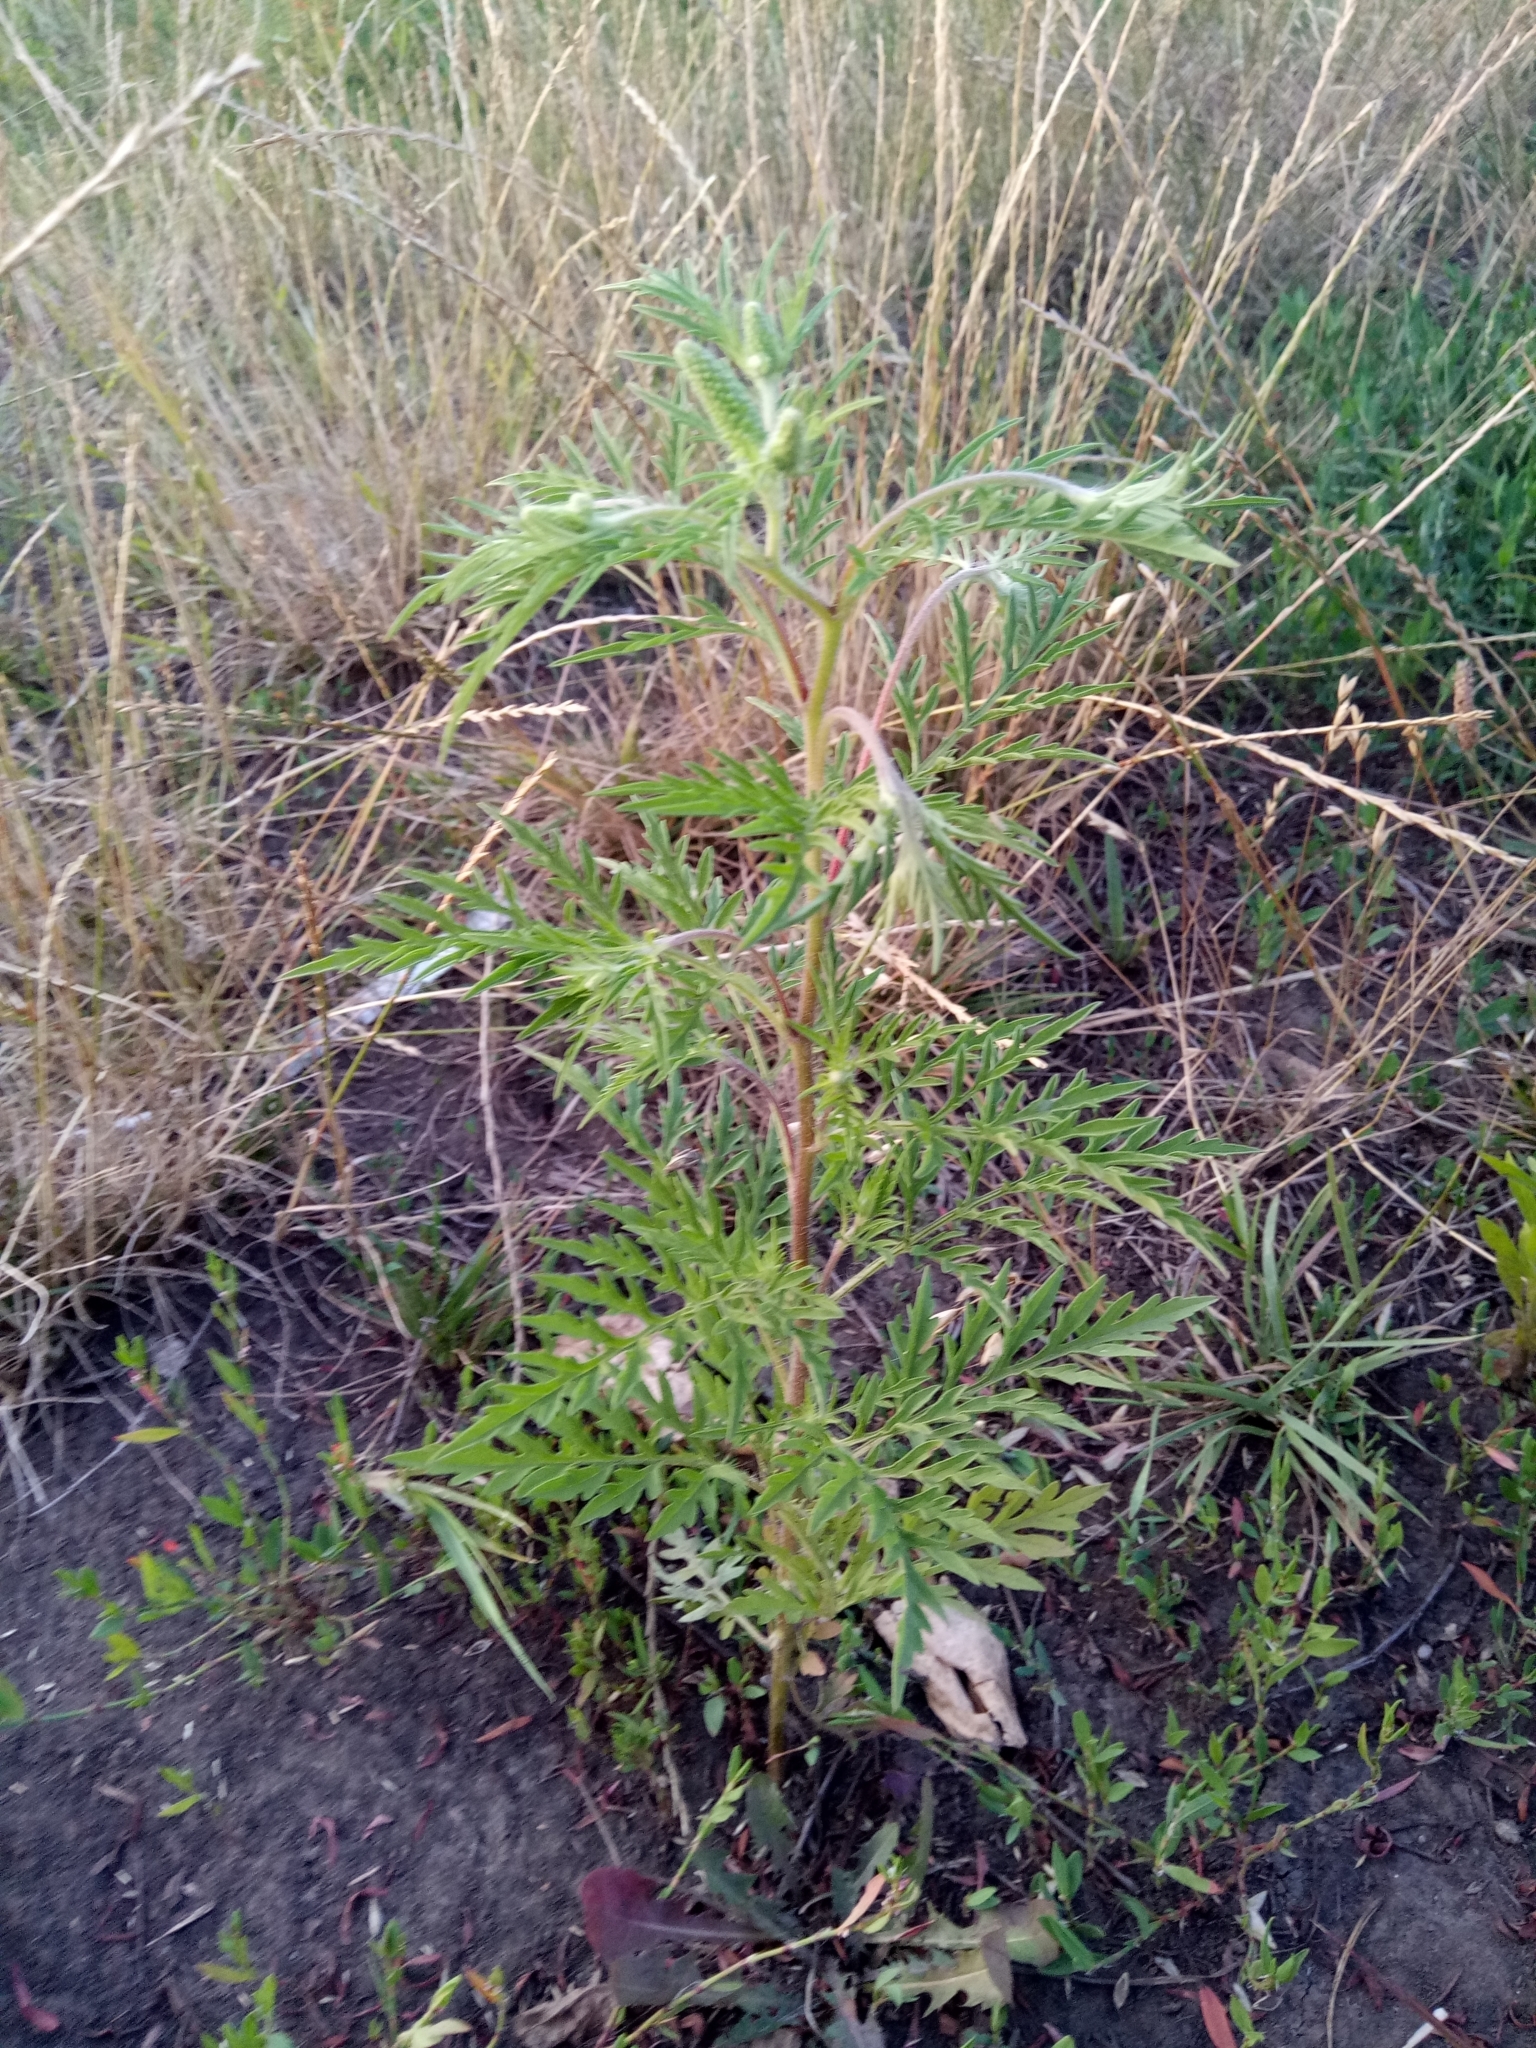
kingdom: Plantae
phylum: Tracheophyta
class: Magnoliopsida
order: Asterales
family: Asteraceae
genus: Ambrosia
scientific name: Ambrosia artemisiifolia
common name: Annual ragweed
